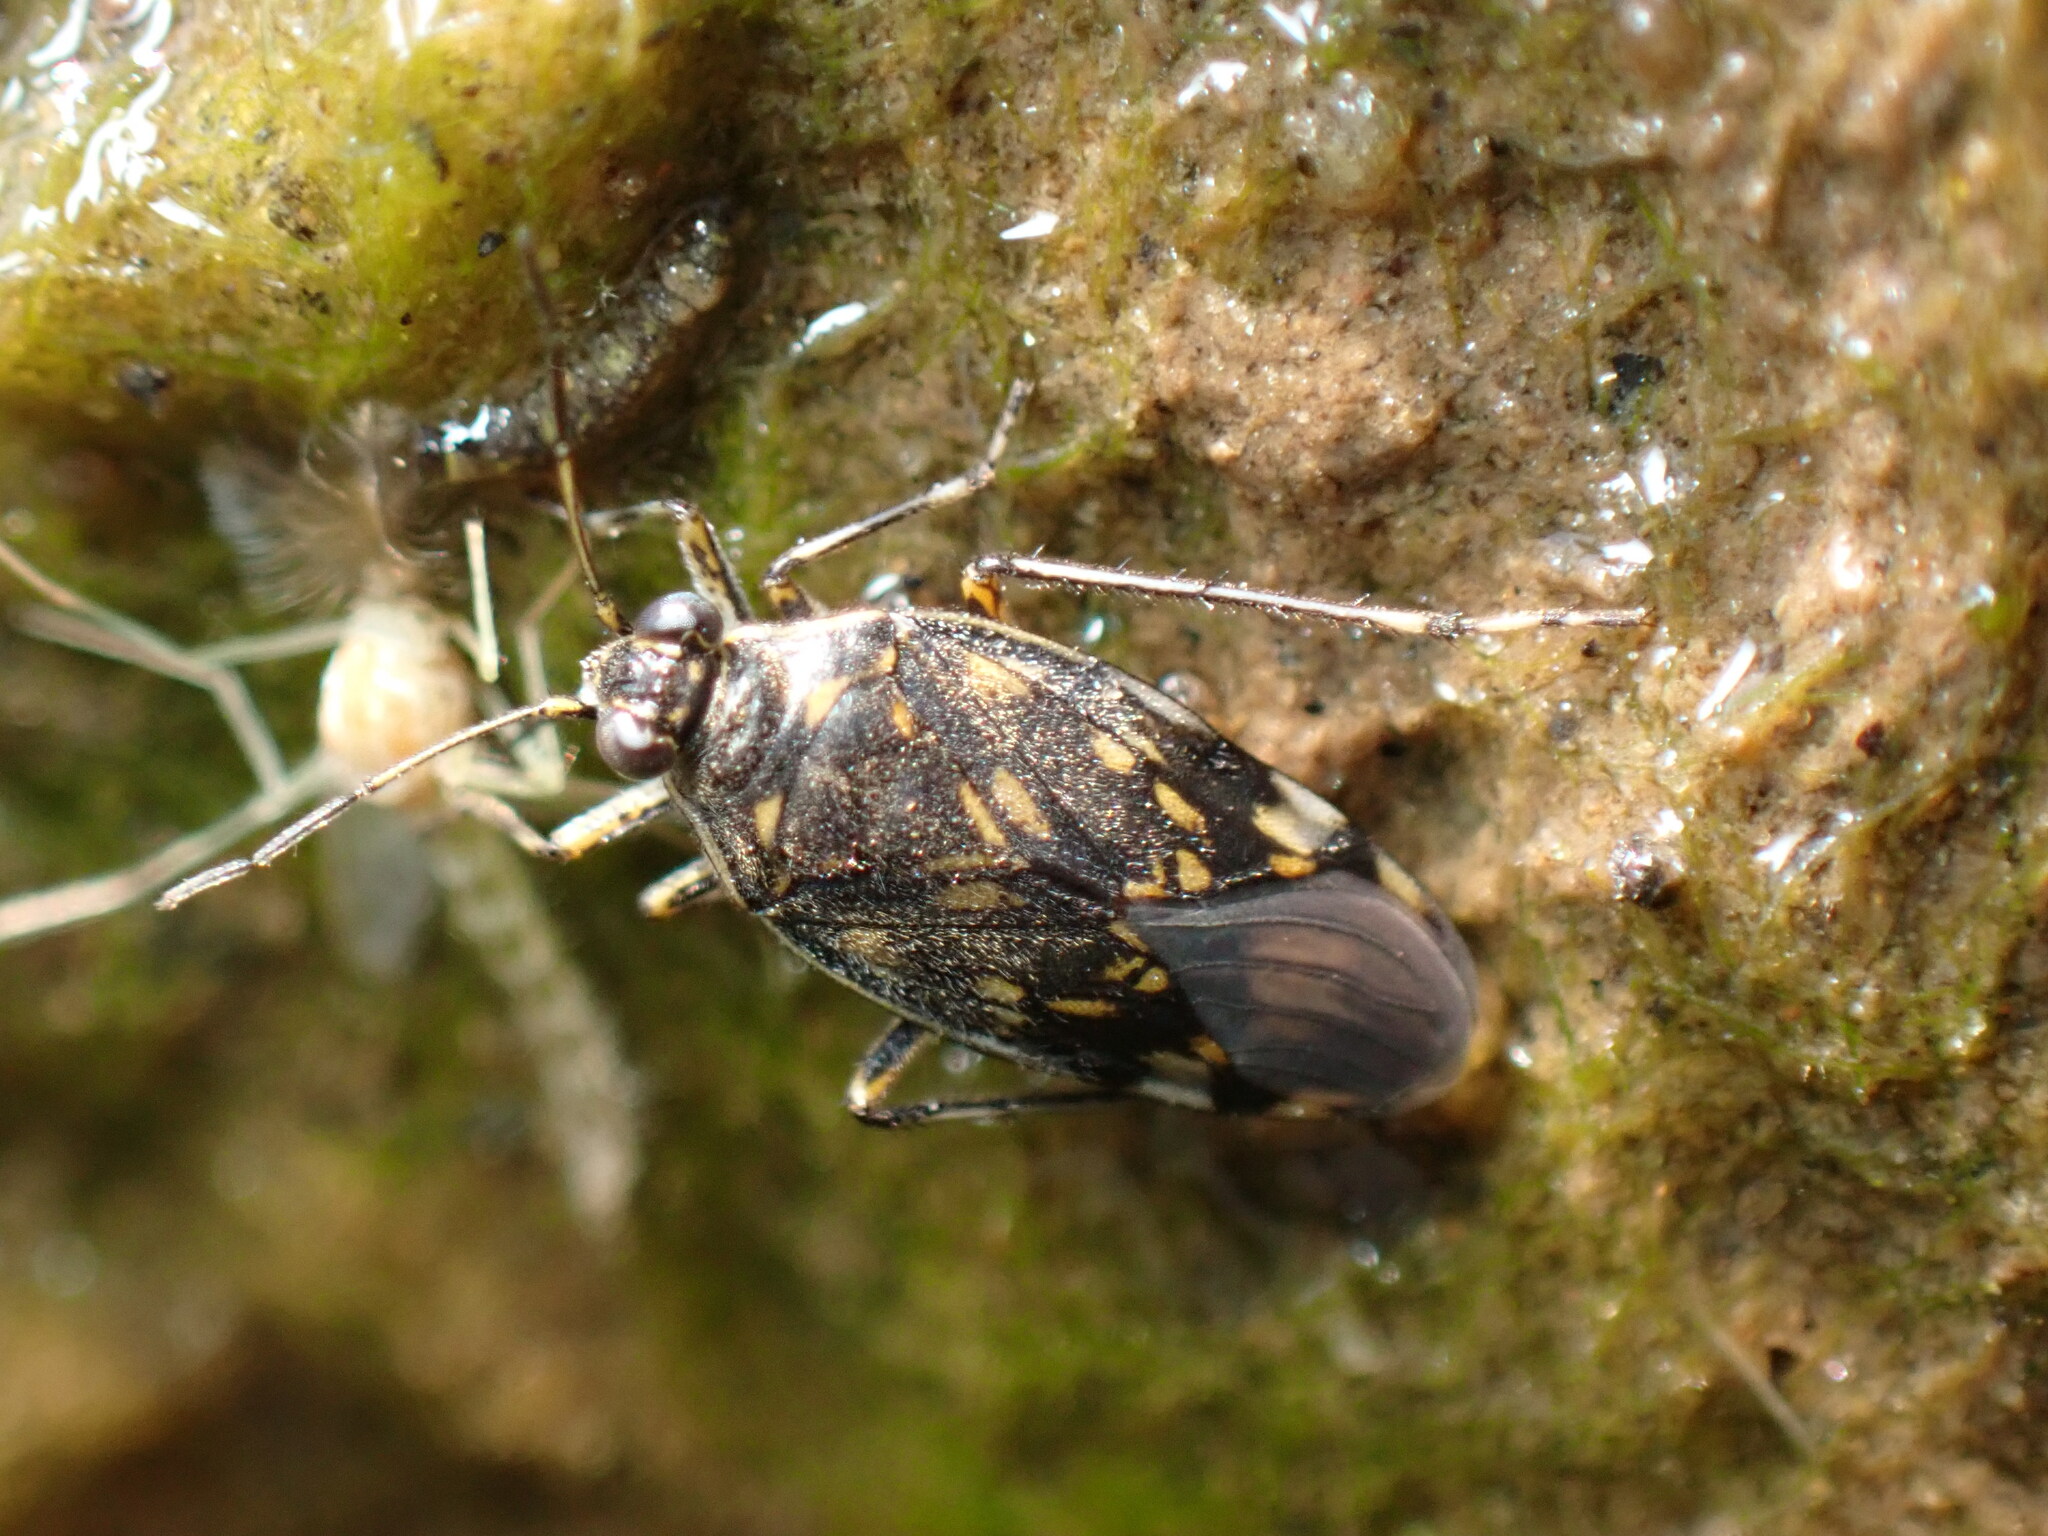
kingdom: Animalia
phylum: Arthropoda
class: Insecta
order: Hemiptera
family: Saldidae
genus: Pentacora
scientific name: Pentacora ligata
